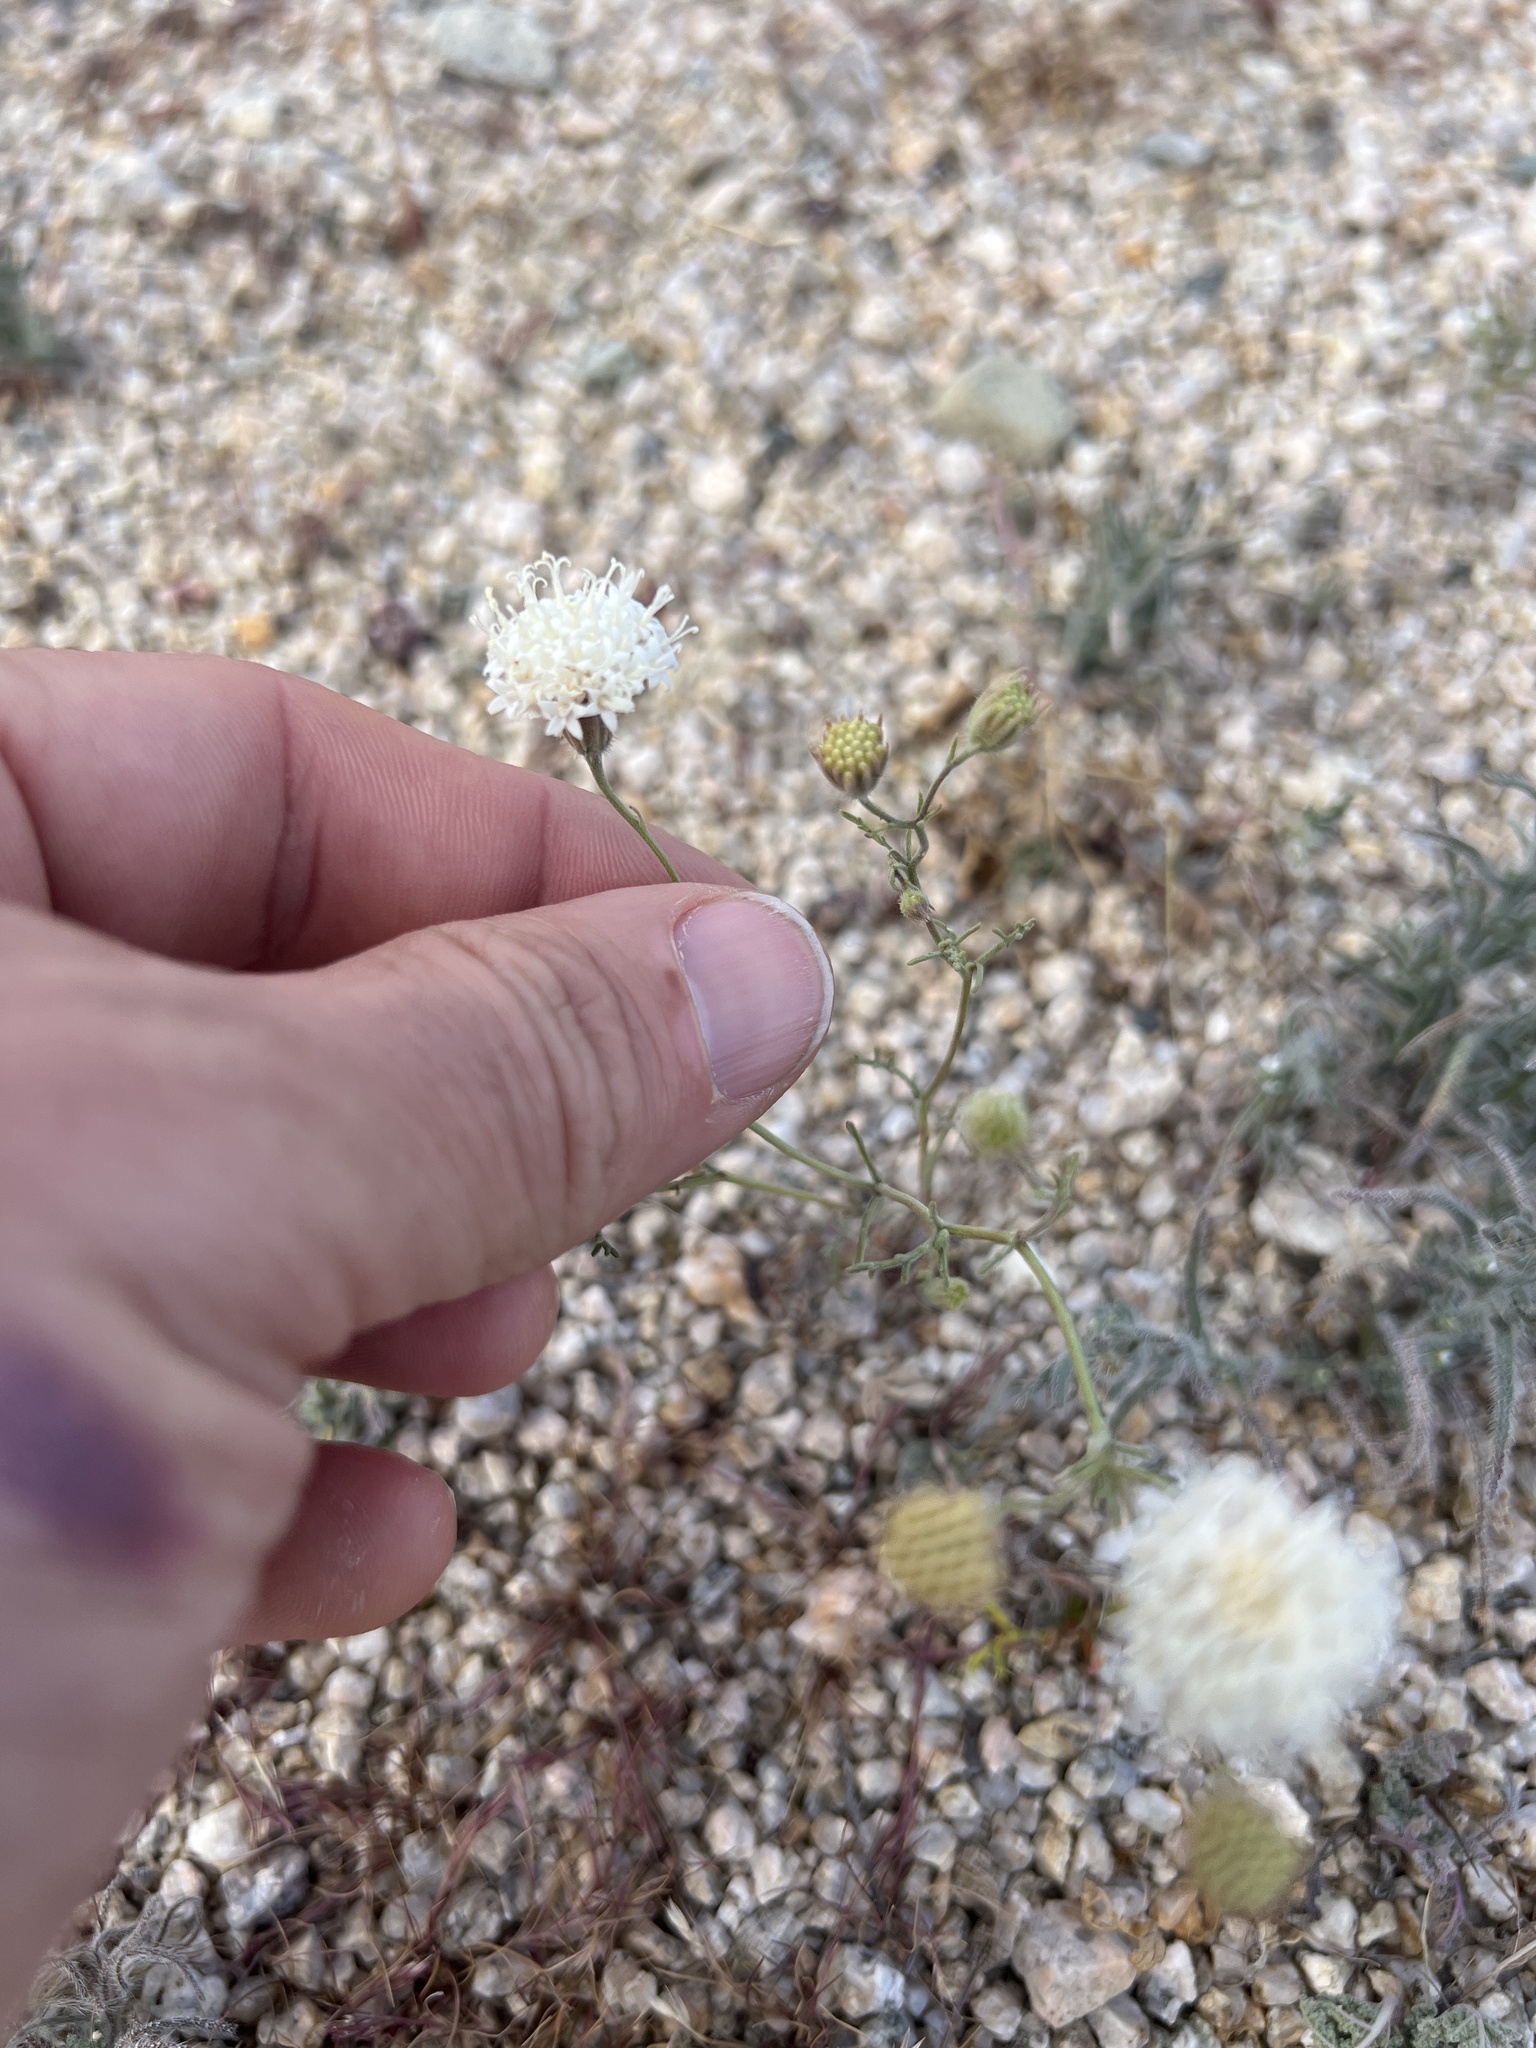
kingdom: Plantae
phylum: Tracheophyta
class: Magnoliopsida
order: Asterales
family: Asteraceae
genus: Chaenactis
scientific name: Chaenactis carphoclinia
